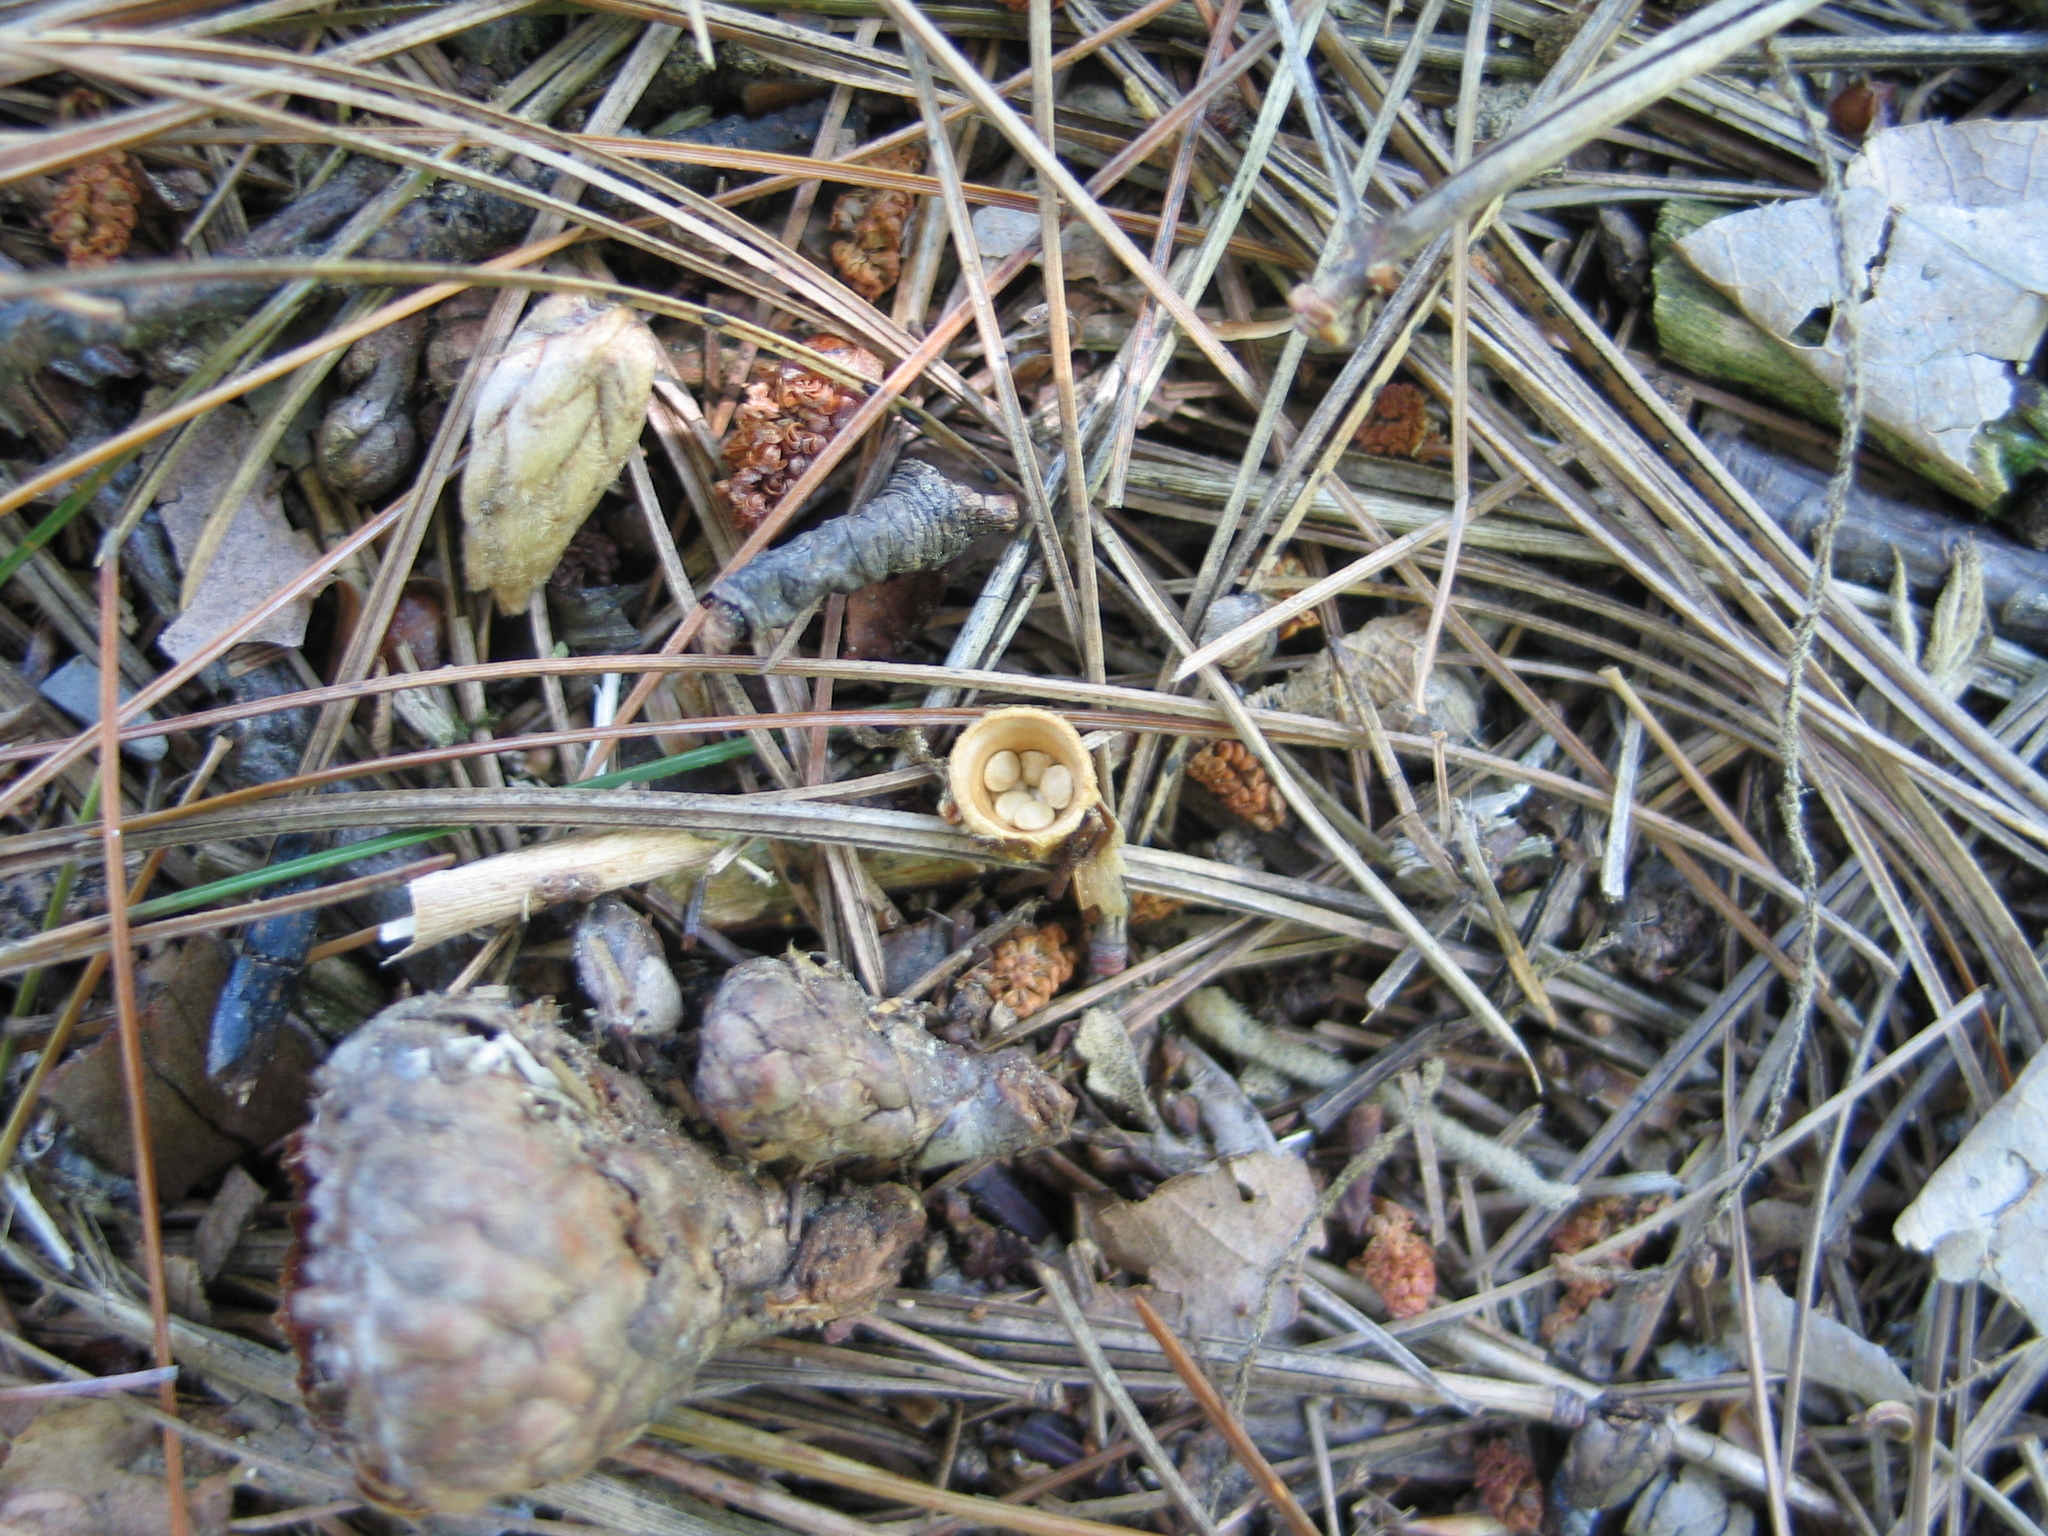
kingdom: Fungi
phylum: Basidiomycota
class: Agaricomycetes
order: Agaricales
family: Nidulariaceae
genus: Crucibulum
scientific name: Crucibulum laeve
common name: Common bird's nest
